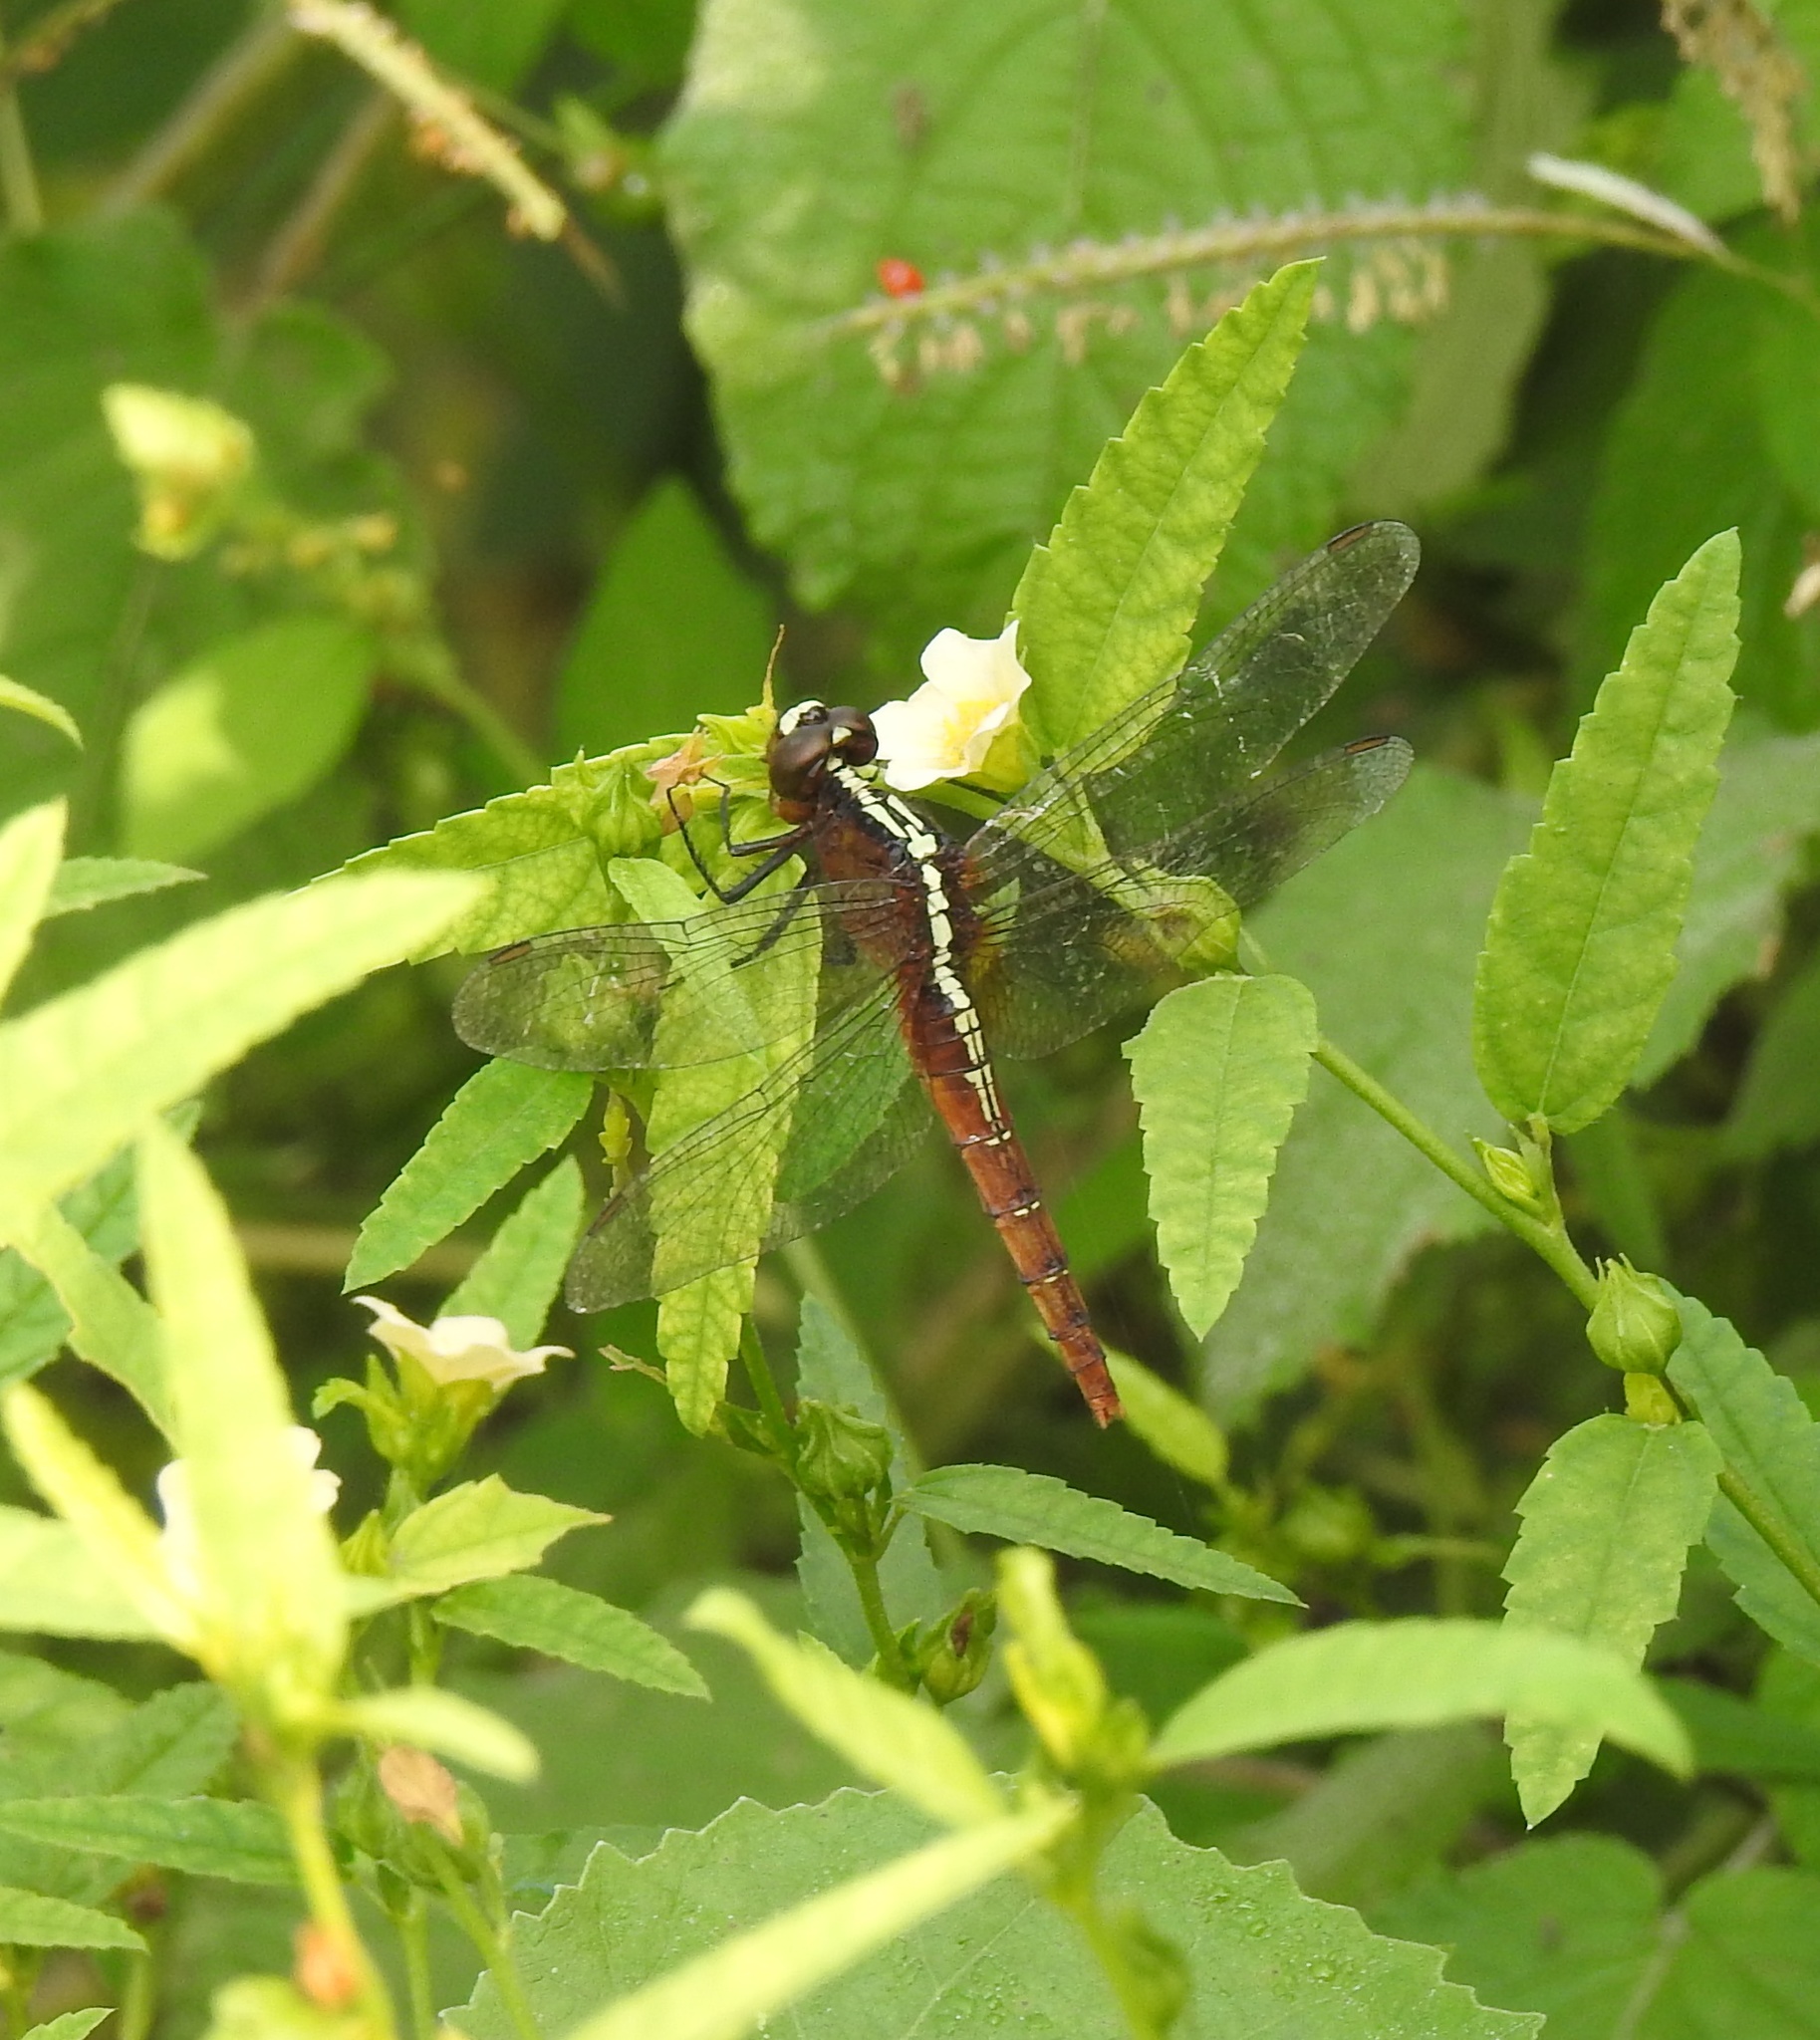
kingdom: Animalia
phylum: Arthropoda
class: Insecta
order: Odonata
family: Libellulidae
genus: Rhodothemis
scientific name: Rhodothemis rufa
